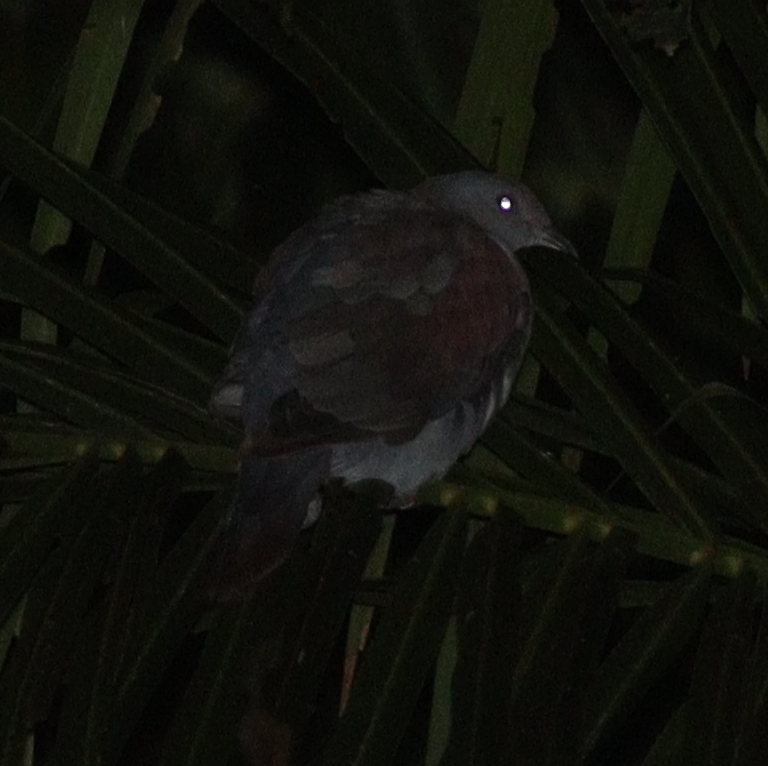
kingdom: Animalia
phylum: Chordata
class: Aves
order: Columbiformes
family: Columbidae
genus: Patagioenas
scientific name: Patagioenas cayennensis
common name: Pale-vented pigeon
